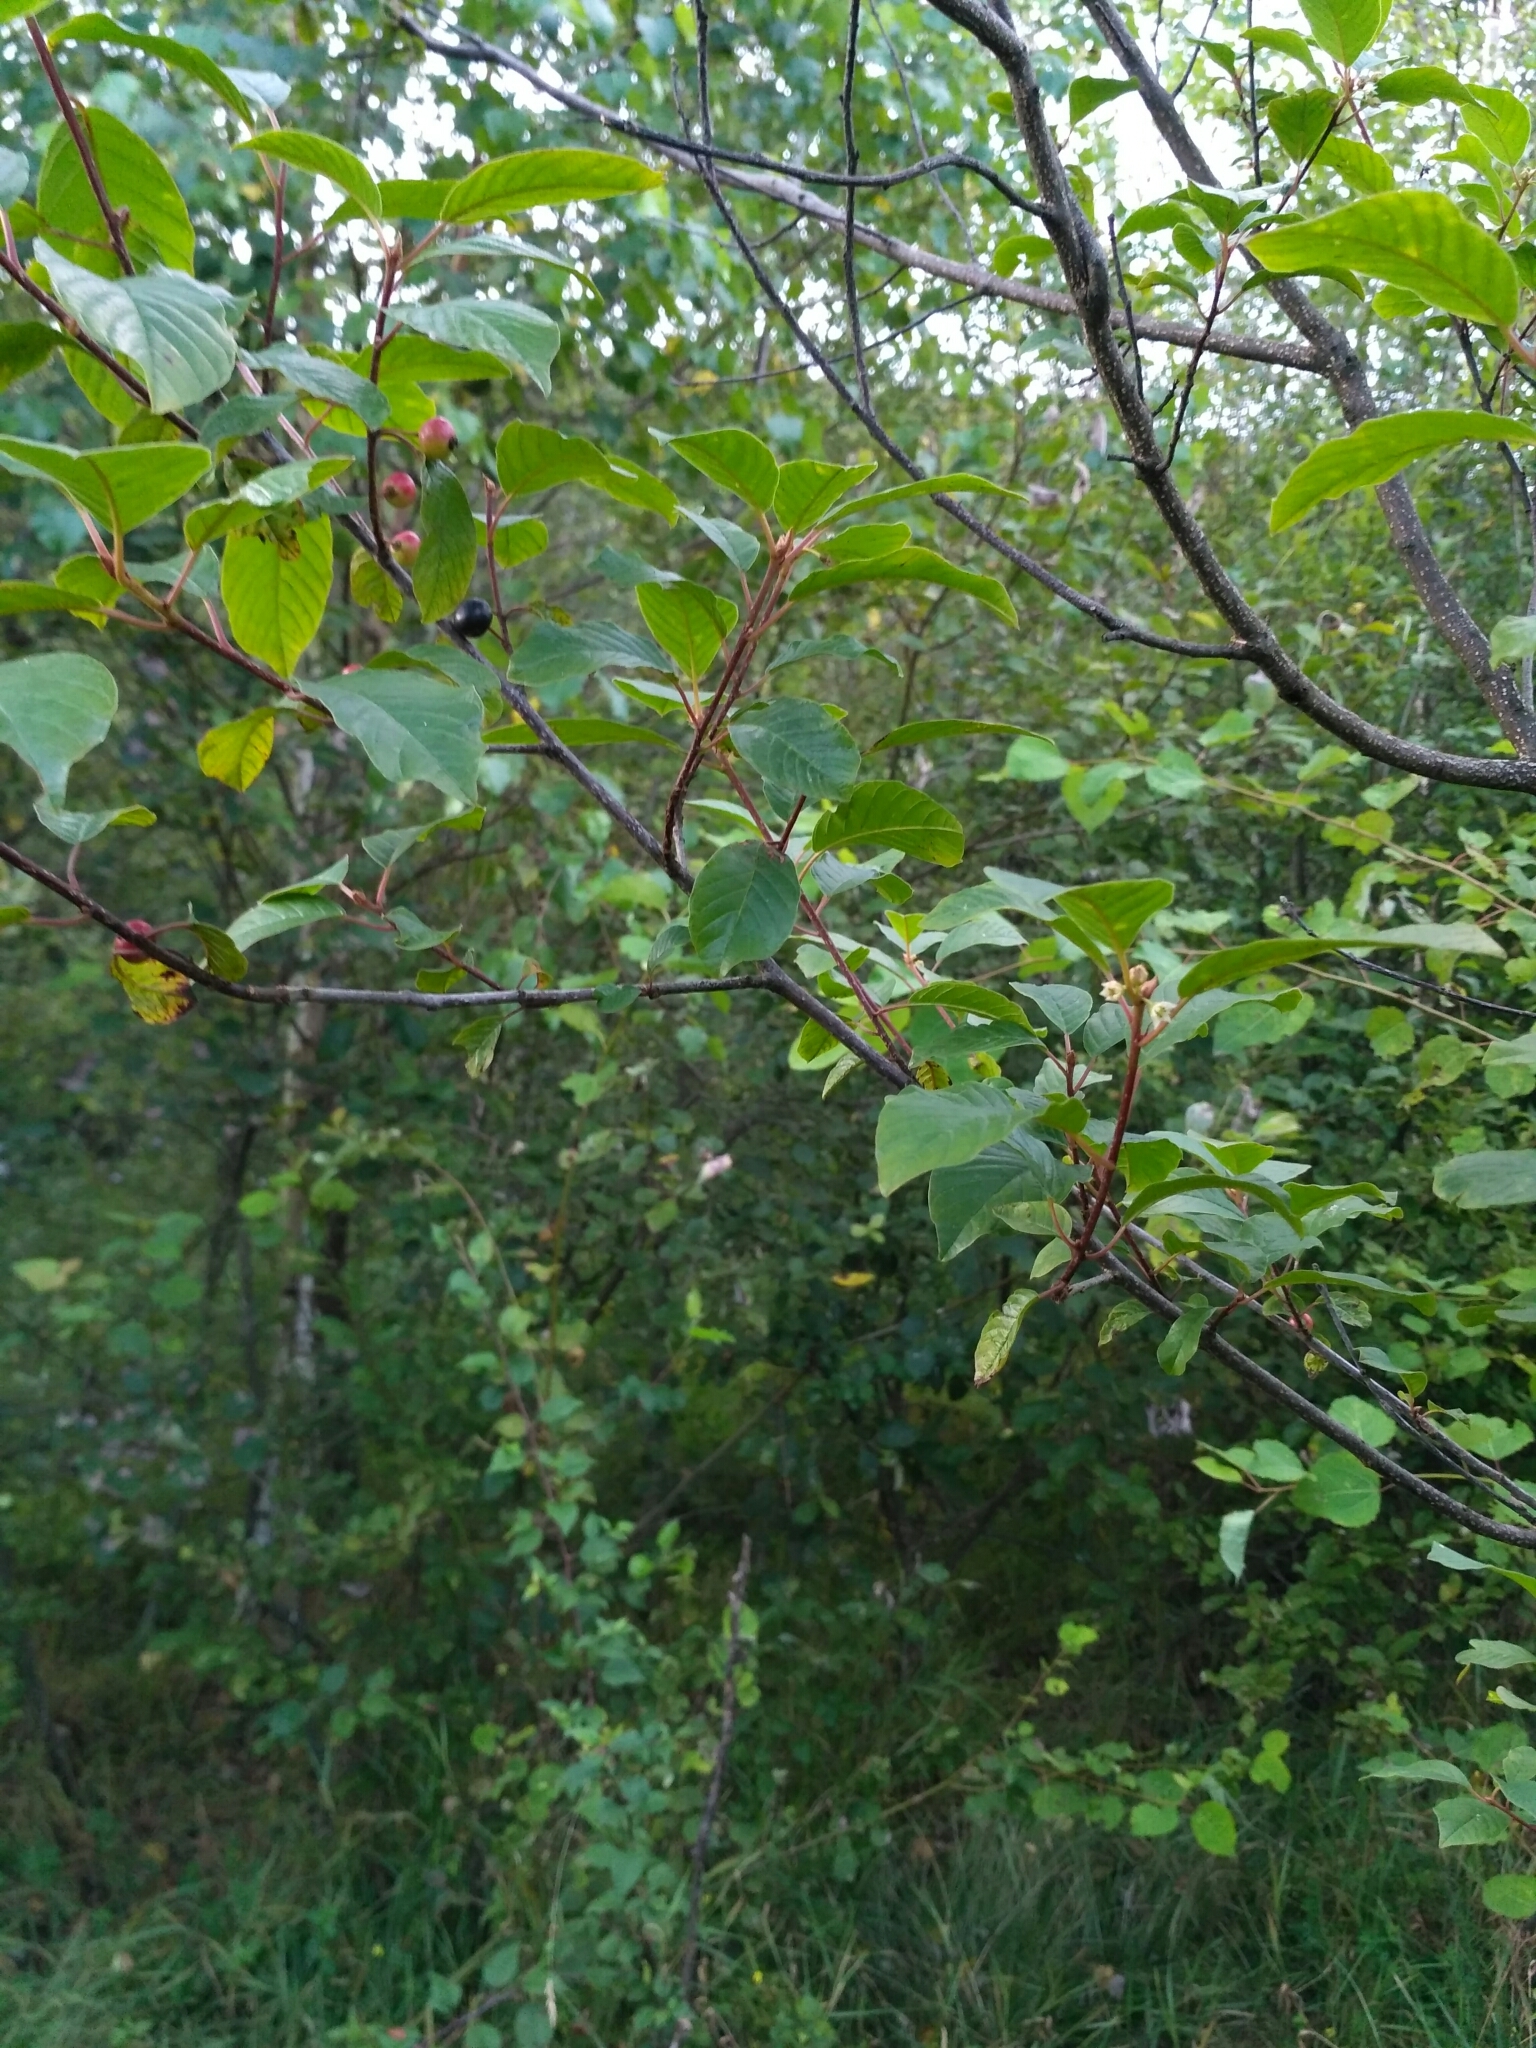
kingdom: Plantae
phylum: Tracheophyta
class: Magnoliopsida
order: Rosales
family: Rhamnaceae
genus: Frangula
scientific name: Frangula alnus
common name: Alder buckthorn
